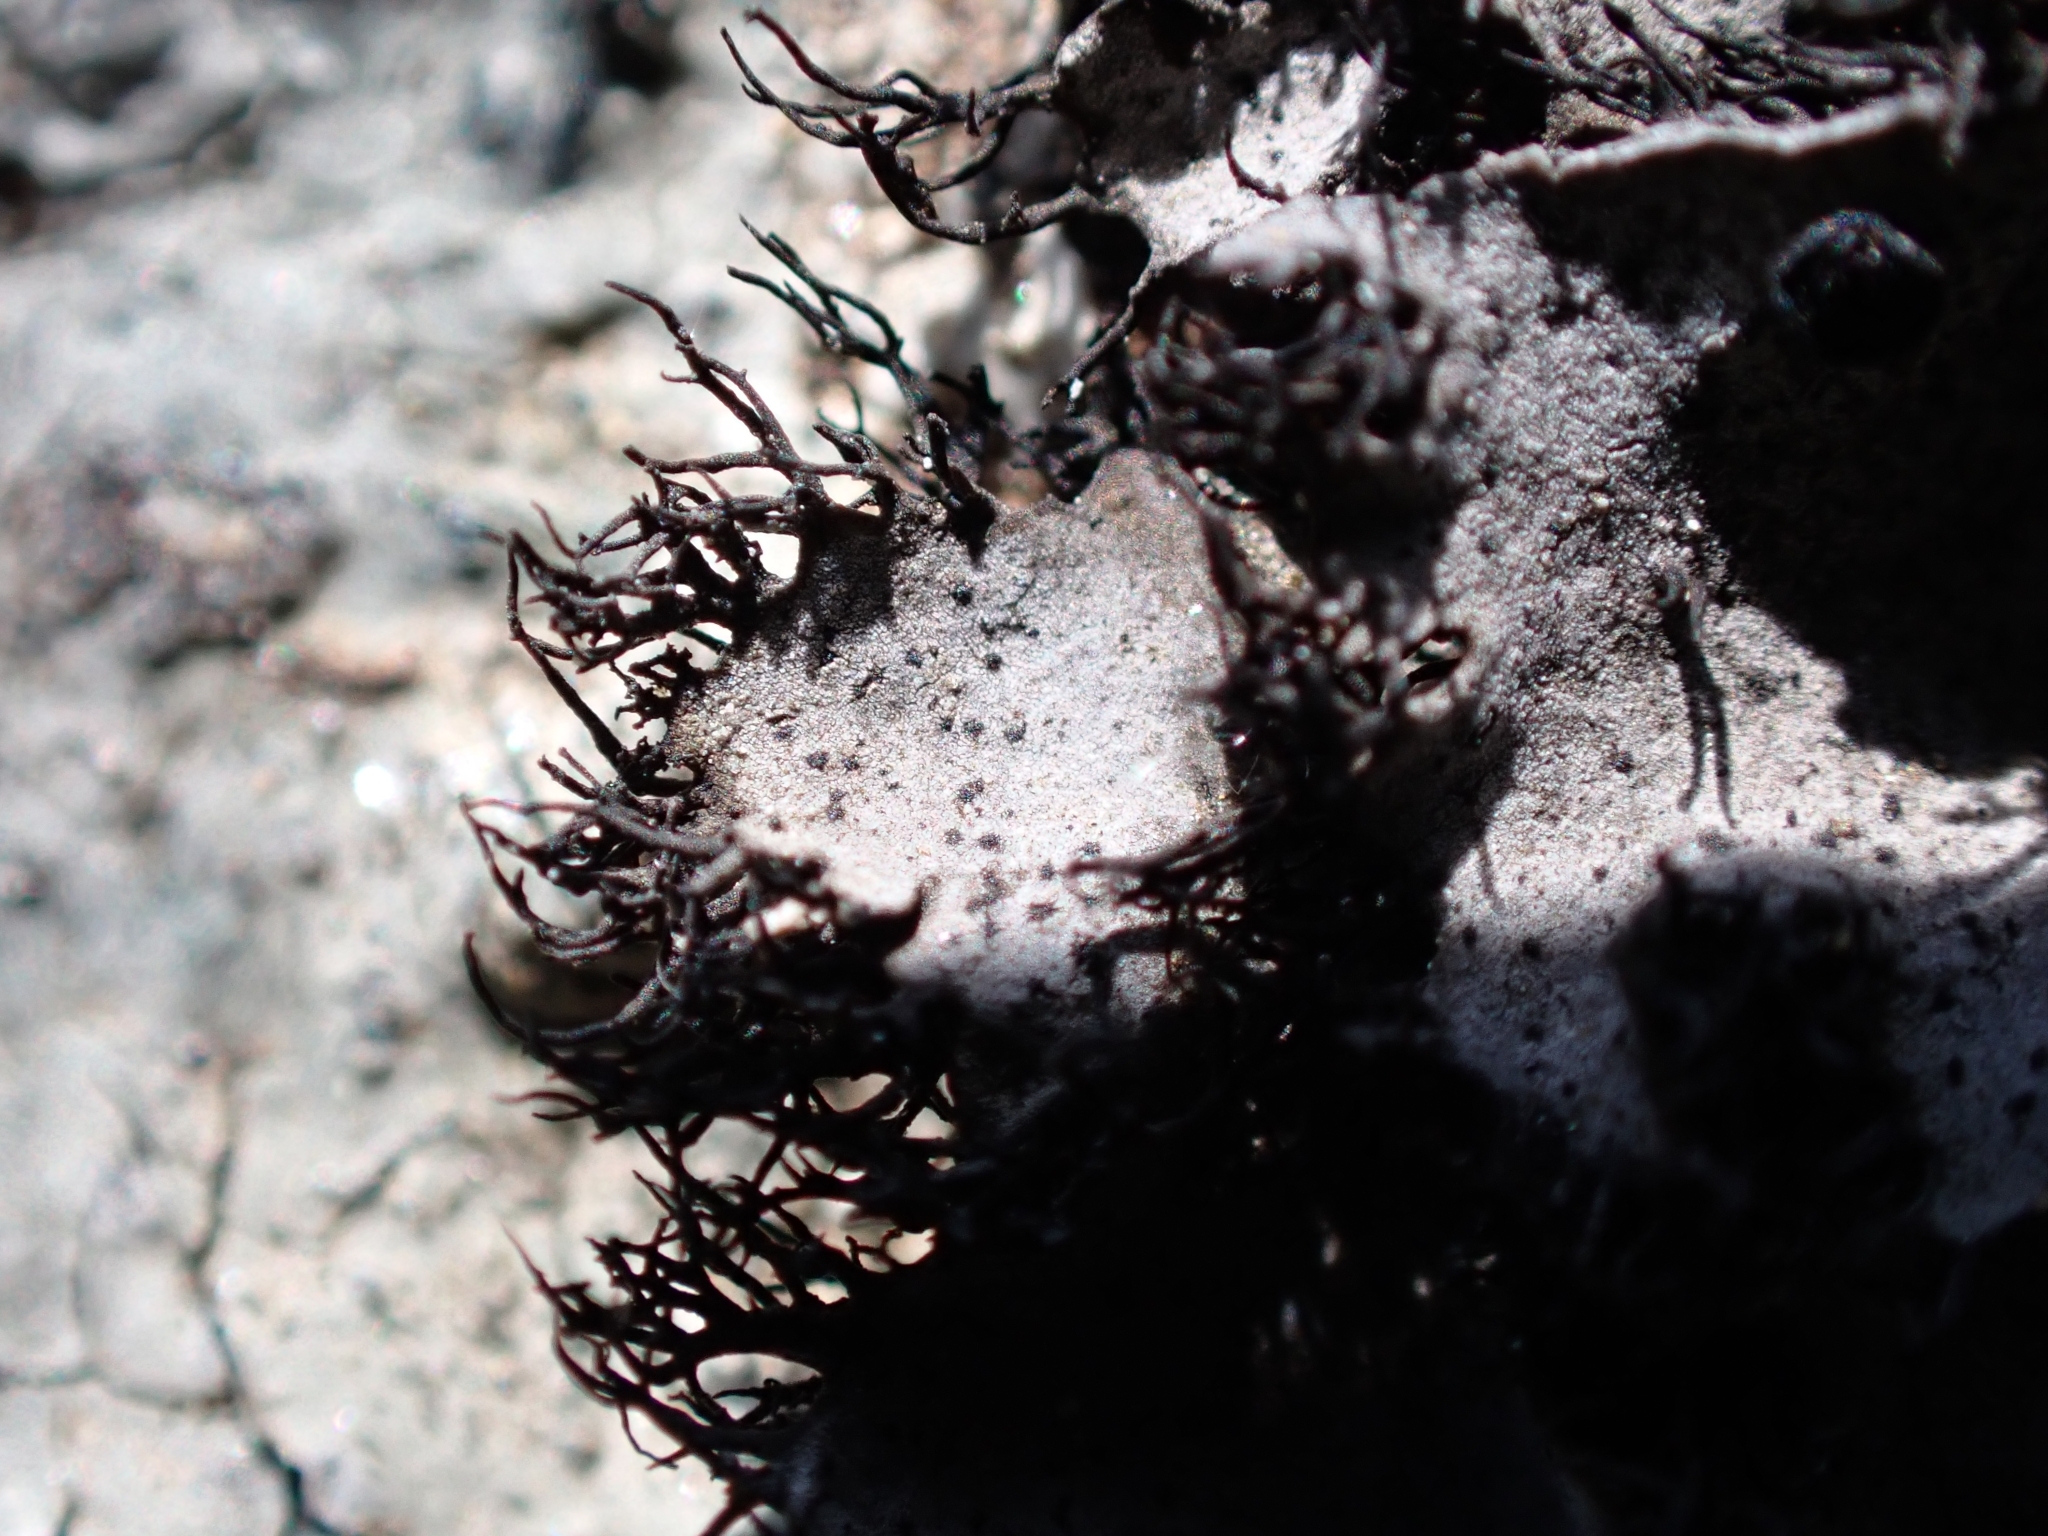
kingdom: Fungi
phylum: Ascomycota
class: Lecanoromycetes
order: Umbilicariales
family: Umbilicariaceae
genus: Umbilicaria
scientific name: Umbilicaria cylindrica
